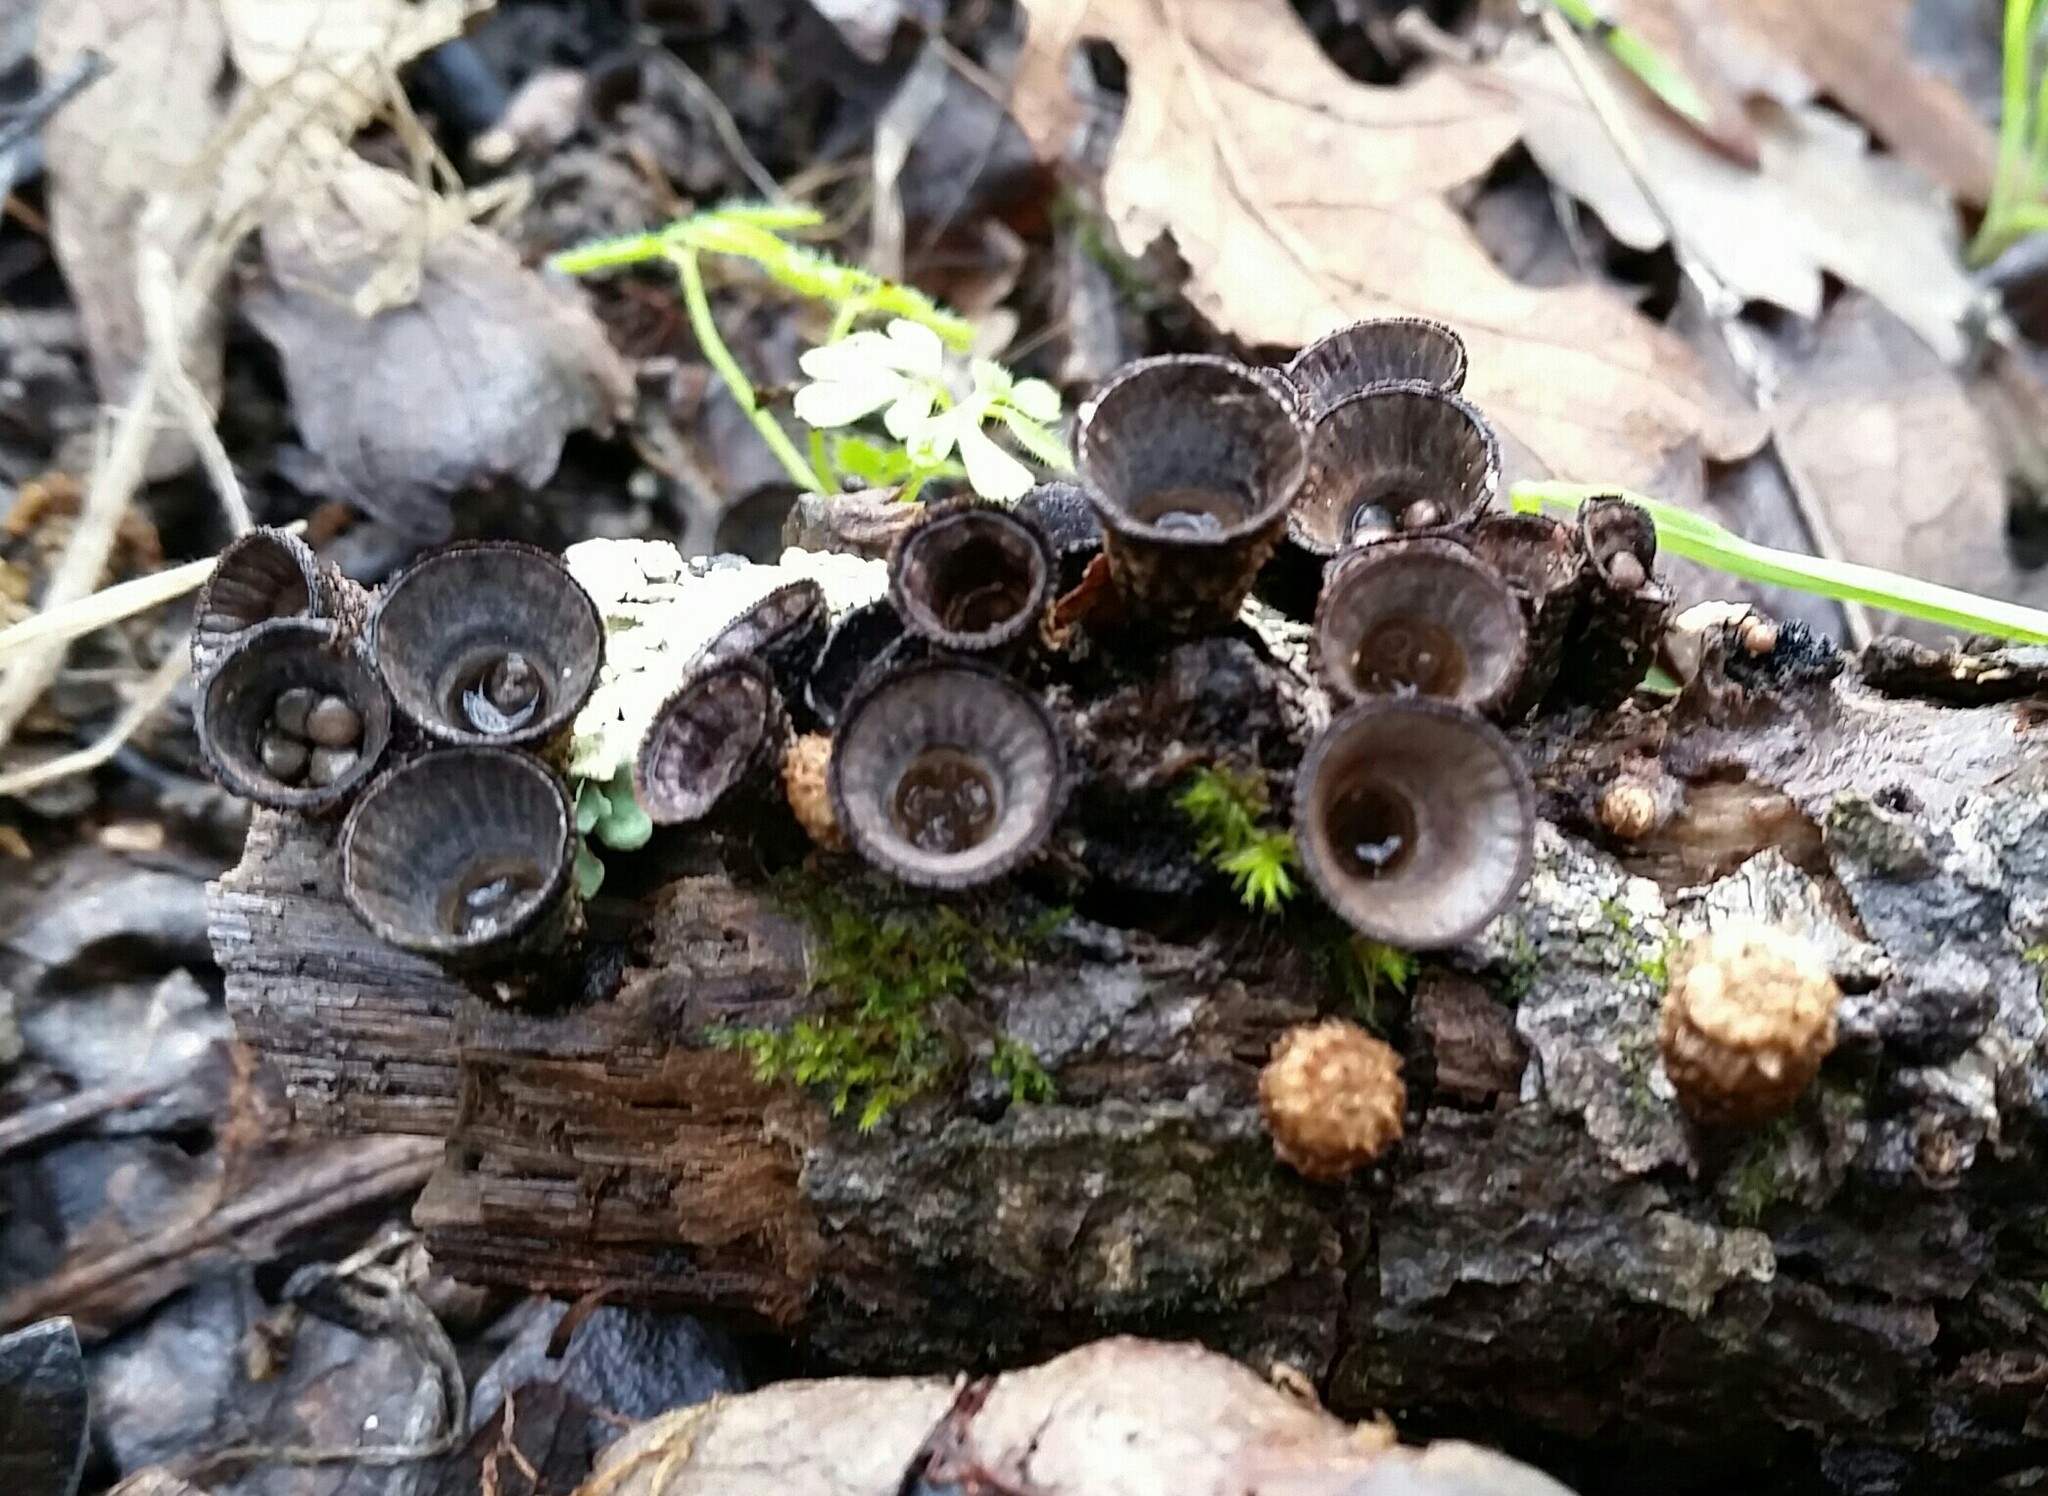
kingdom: Fungi
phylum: Basidiomycota
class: Agaricomycetes
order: Agaricales
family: Agaricaceae
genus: Cyathus
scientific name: Cyathus striatus
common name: Fluted bird's nest
